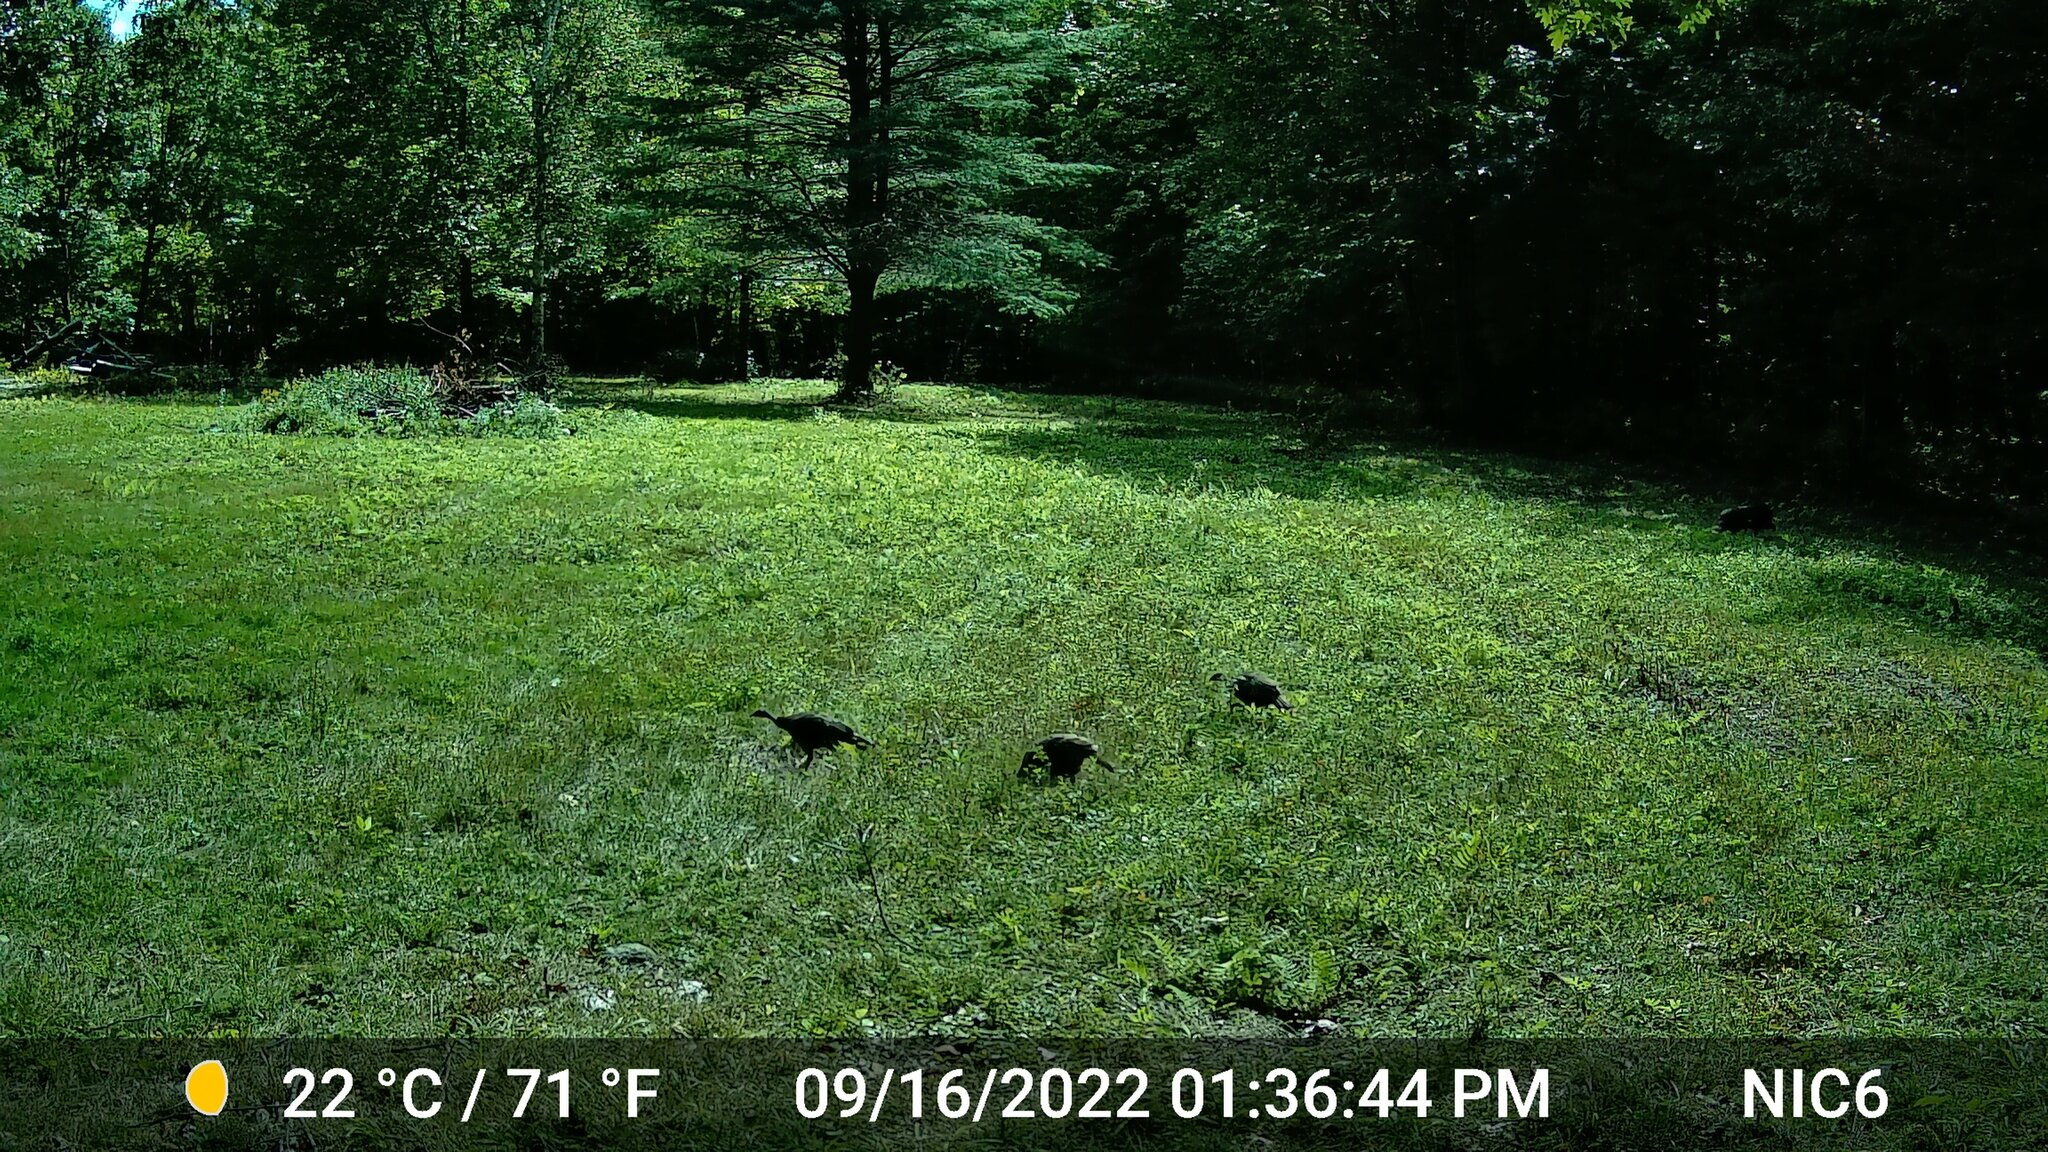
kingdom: Animalia
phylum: Chordata
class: Aves
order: Galliformes
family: Phasianidae
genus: Meleagris
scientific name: Meleagris gallopavo
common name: Wild turkey
